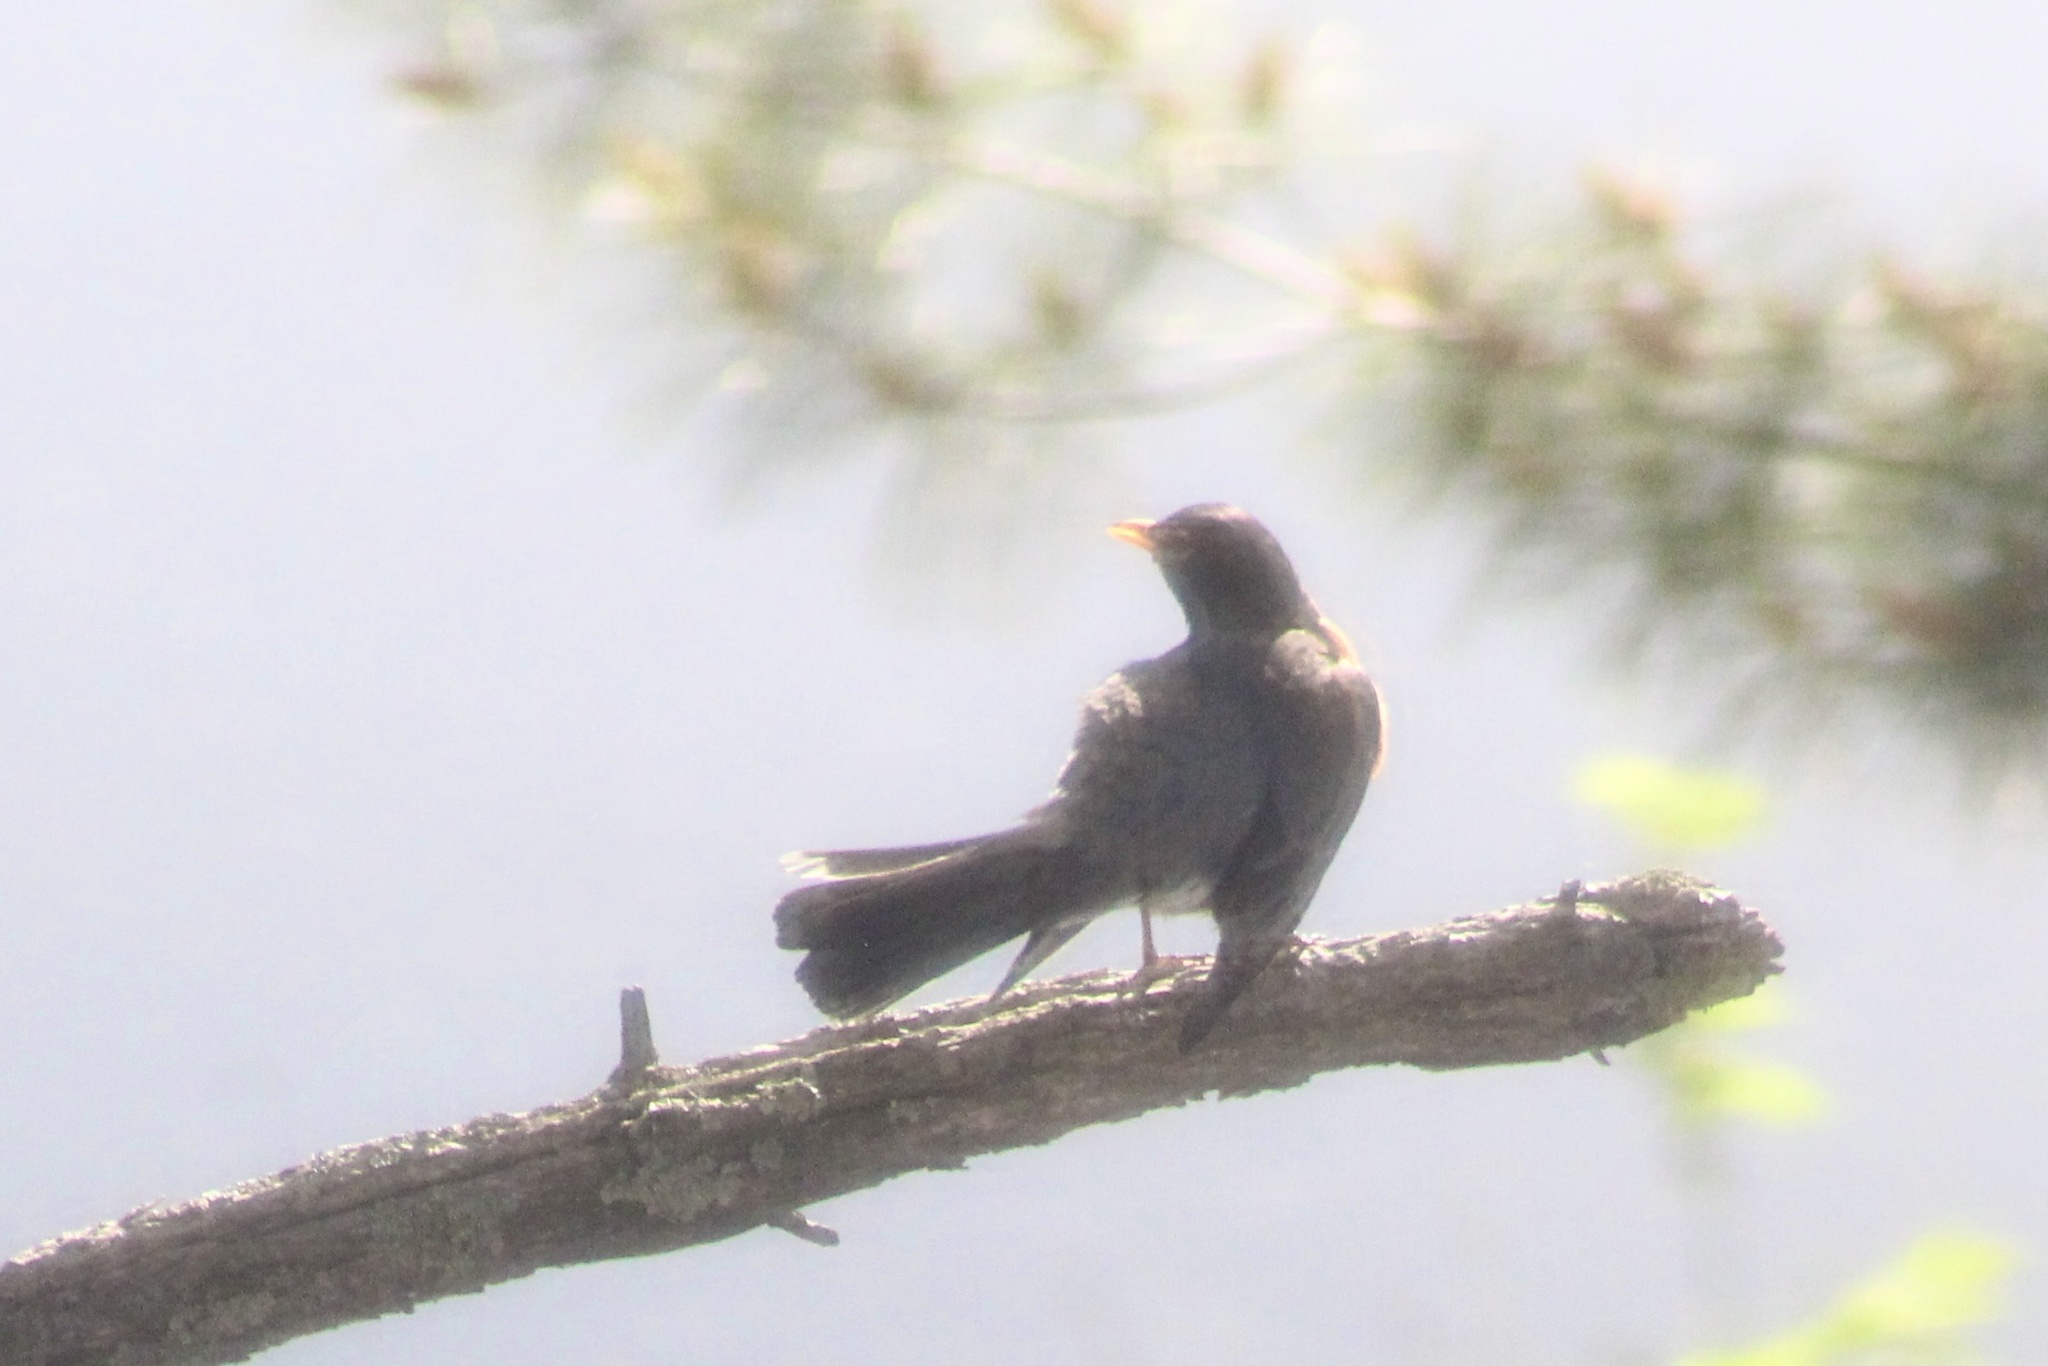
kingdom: Animalia
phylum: Chordata
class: Aves
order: Passeriformes
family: Turdidae
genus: Turdus
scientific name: Turdus migratorius
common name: American robin
